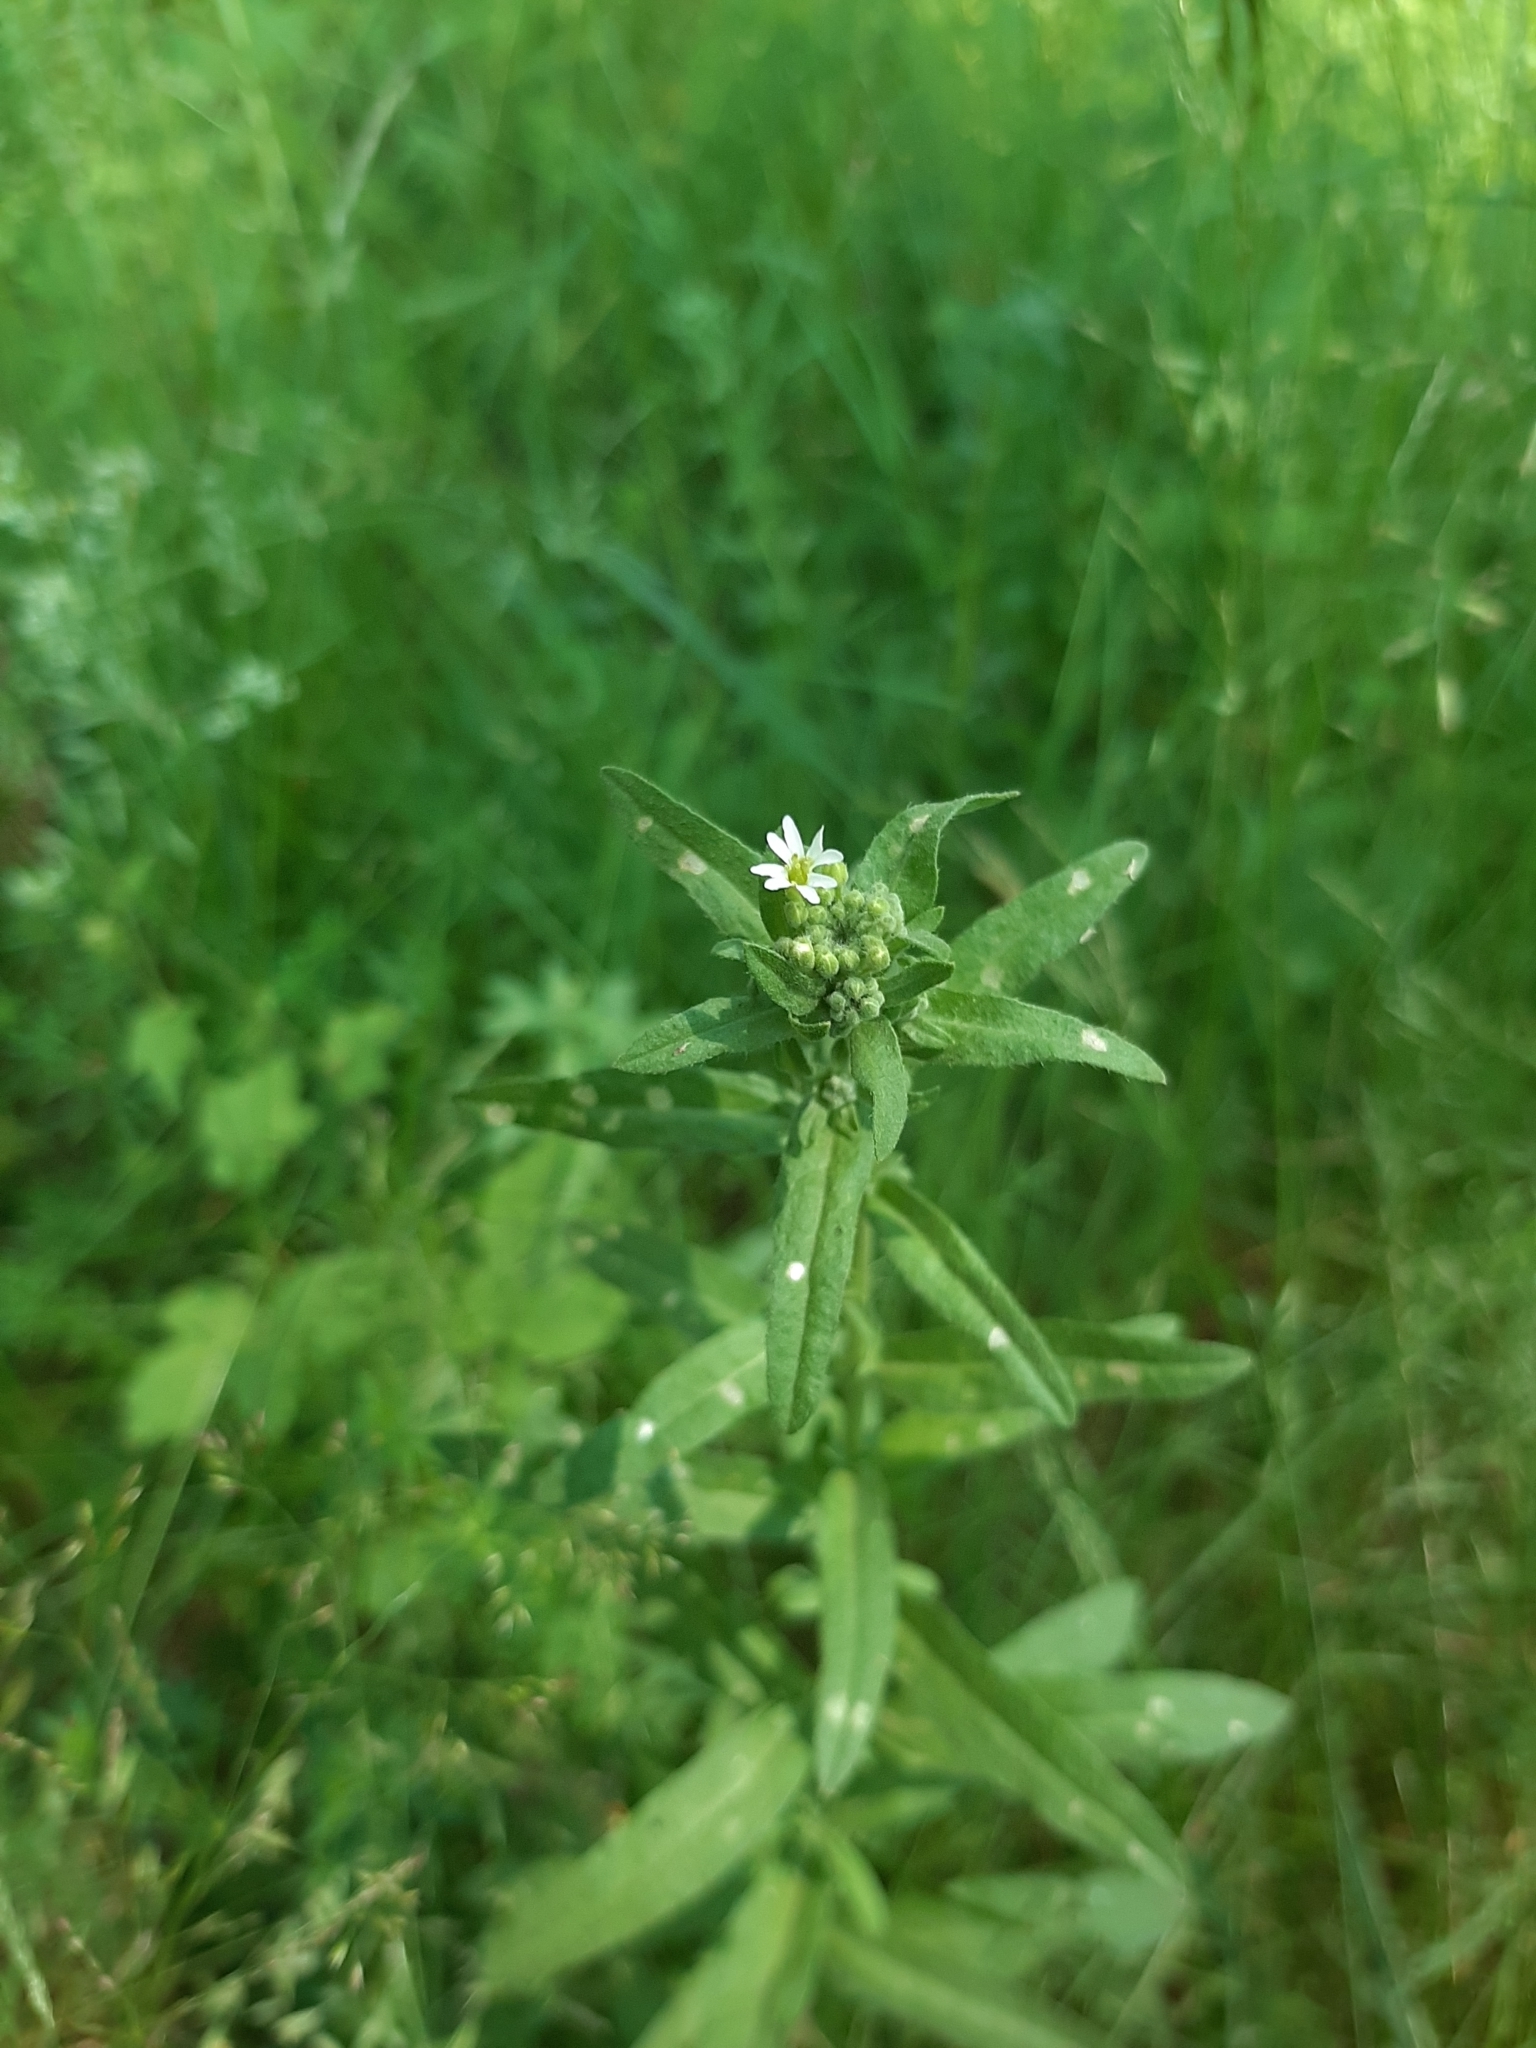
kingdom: Plantae
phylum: Tracheophyta
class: Magnoliopsida
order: Brassicales
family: Brassicaceae
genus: Berteroa
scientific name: Berteroa incana
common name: Hoary alison
